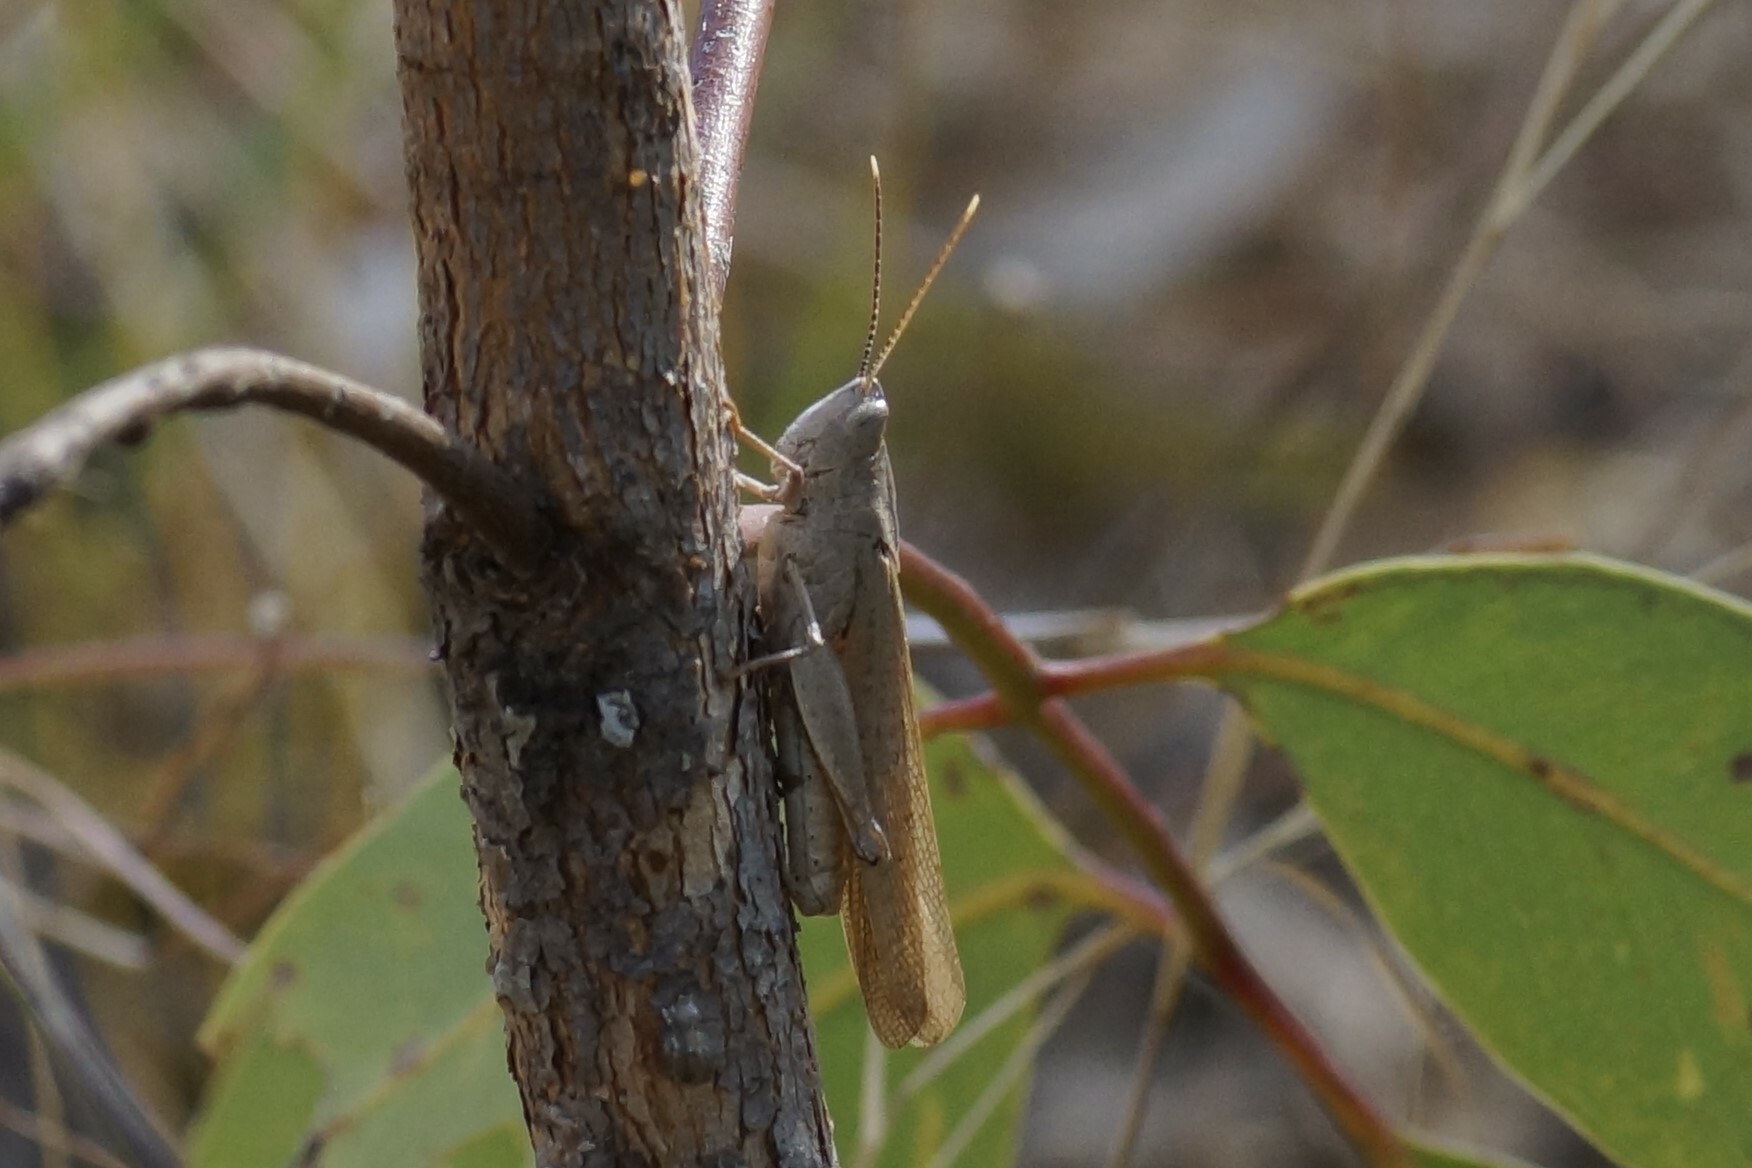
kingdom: Animalia
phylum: Arthropoda
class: Insecta
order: Orthoptera
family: Acrididae
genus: Goniaea
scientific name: Goniaea furcifera
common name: Tropical gumleaf grasshopper
